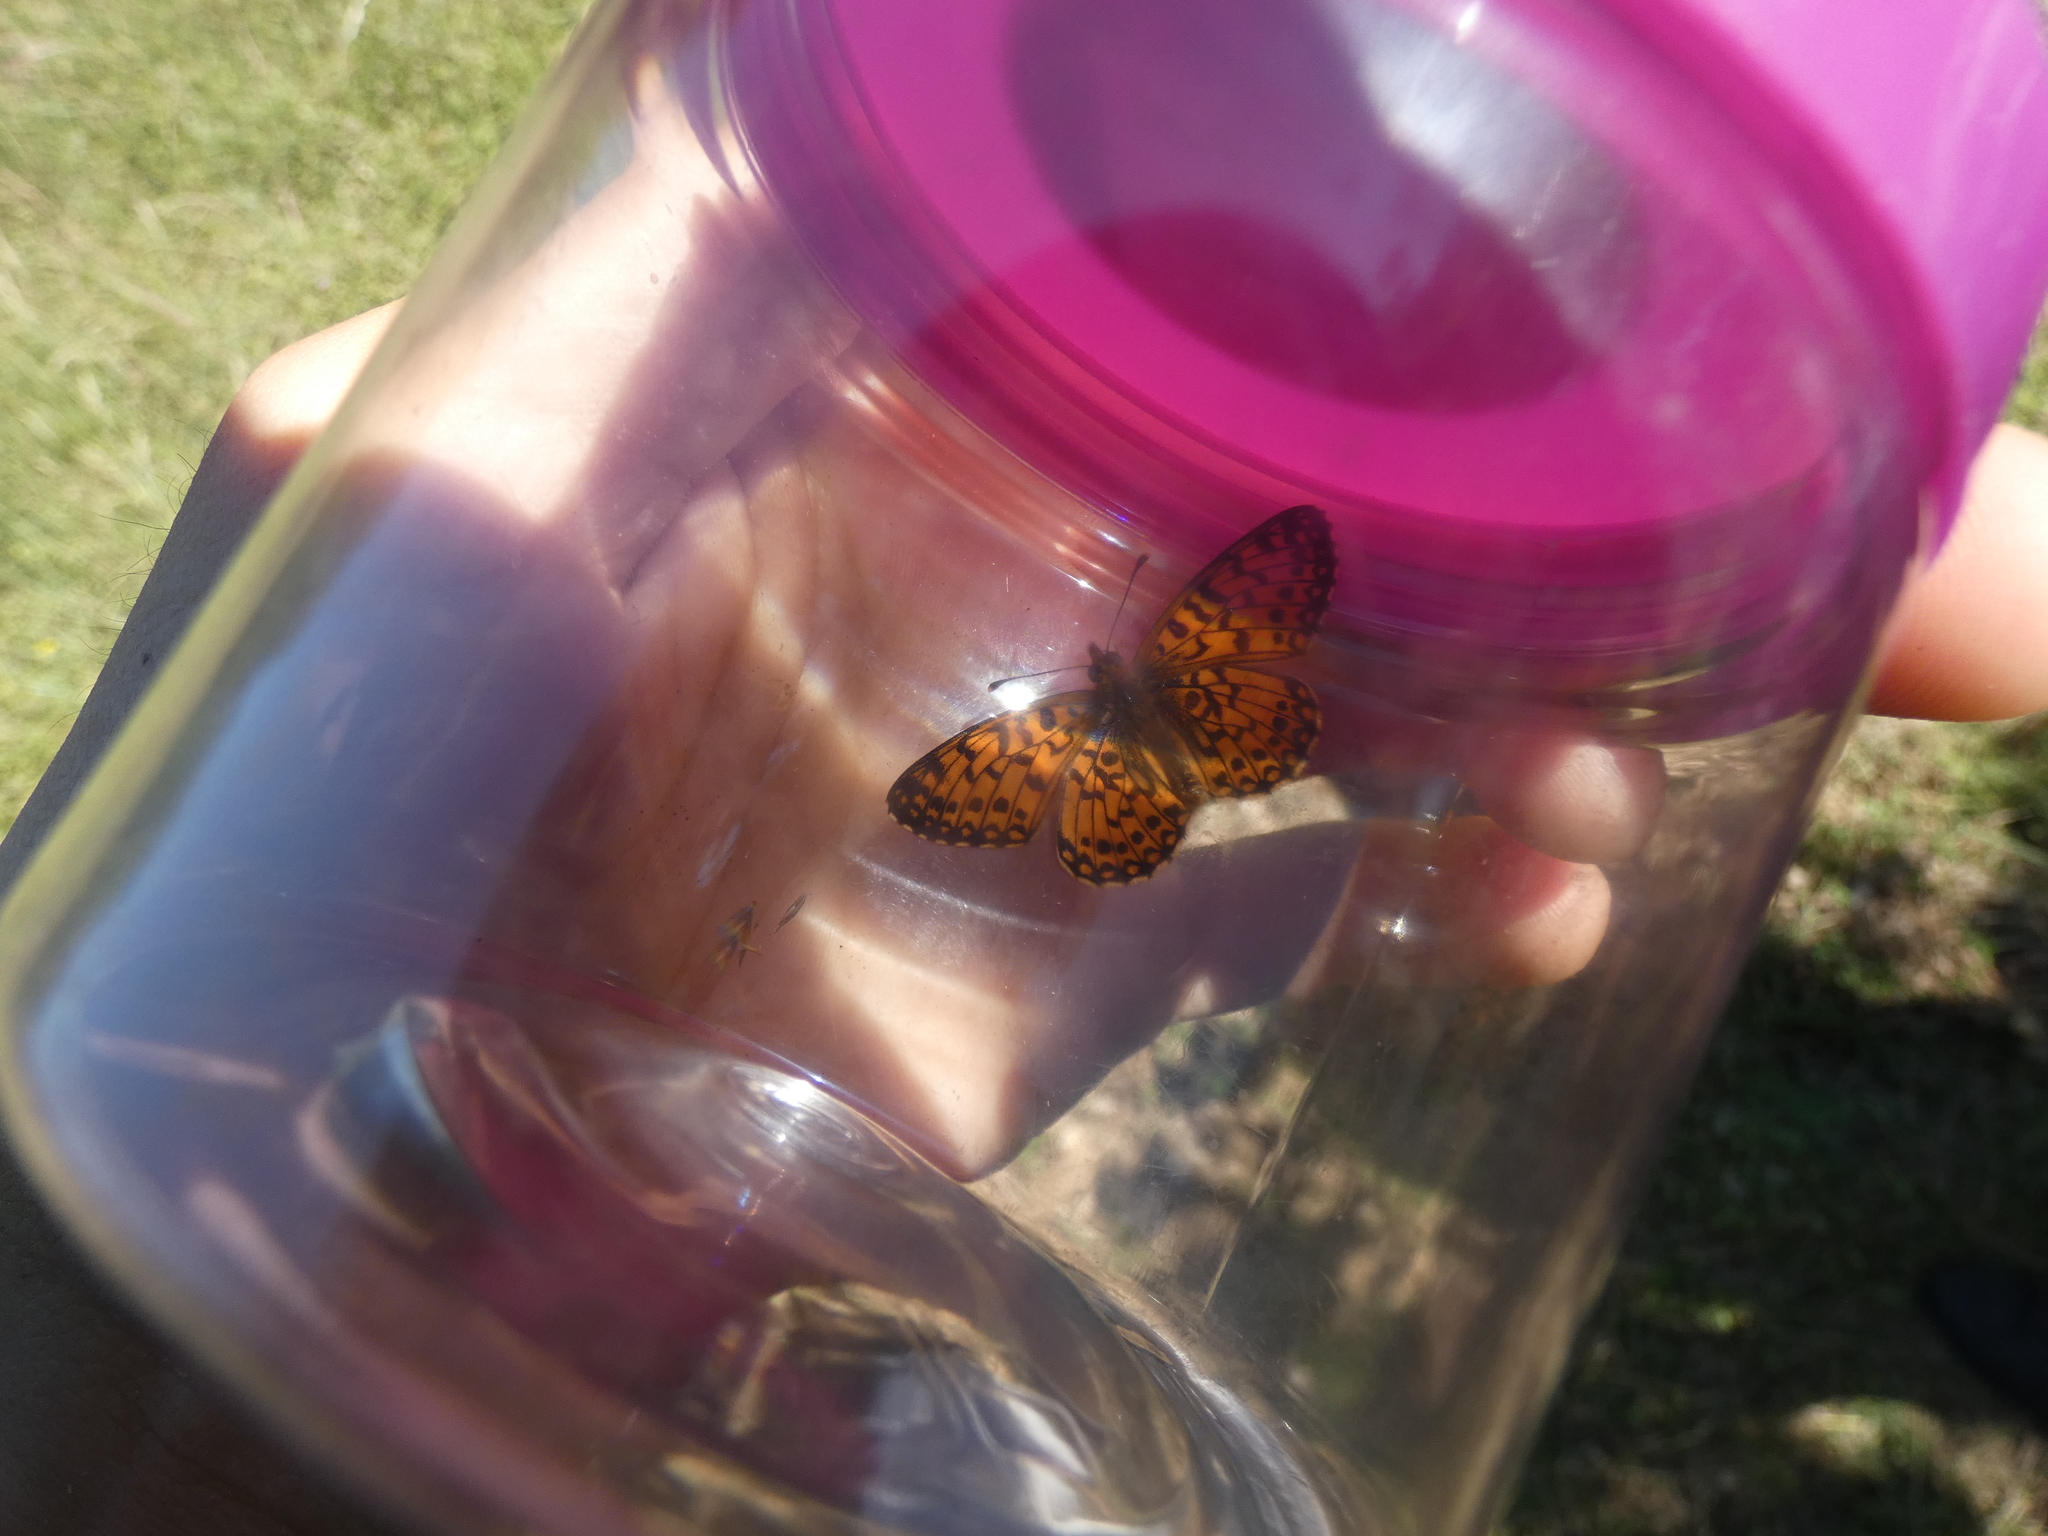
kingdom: Animalia
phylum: Arthropoda
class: Insecta
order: Lepidoptera
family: Nymphalidae
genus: Boloria
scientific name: Boloria selene
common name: Small pearl-bordered fritillary
